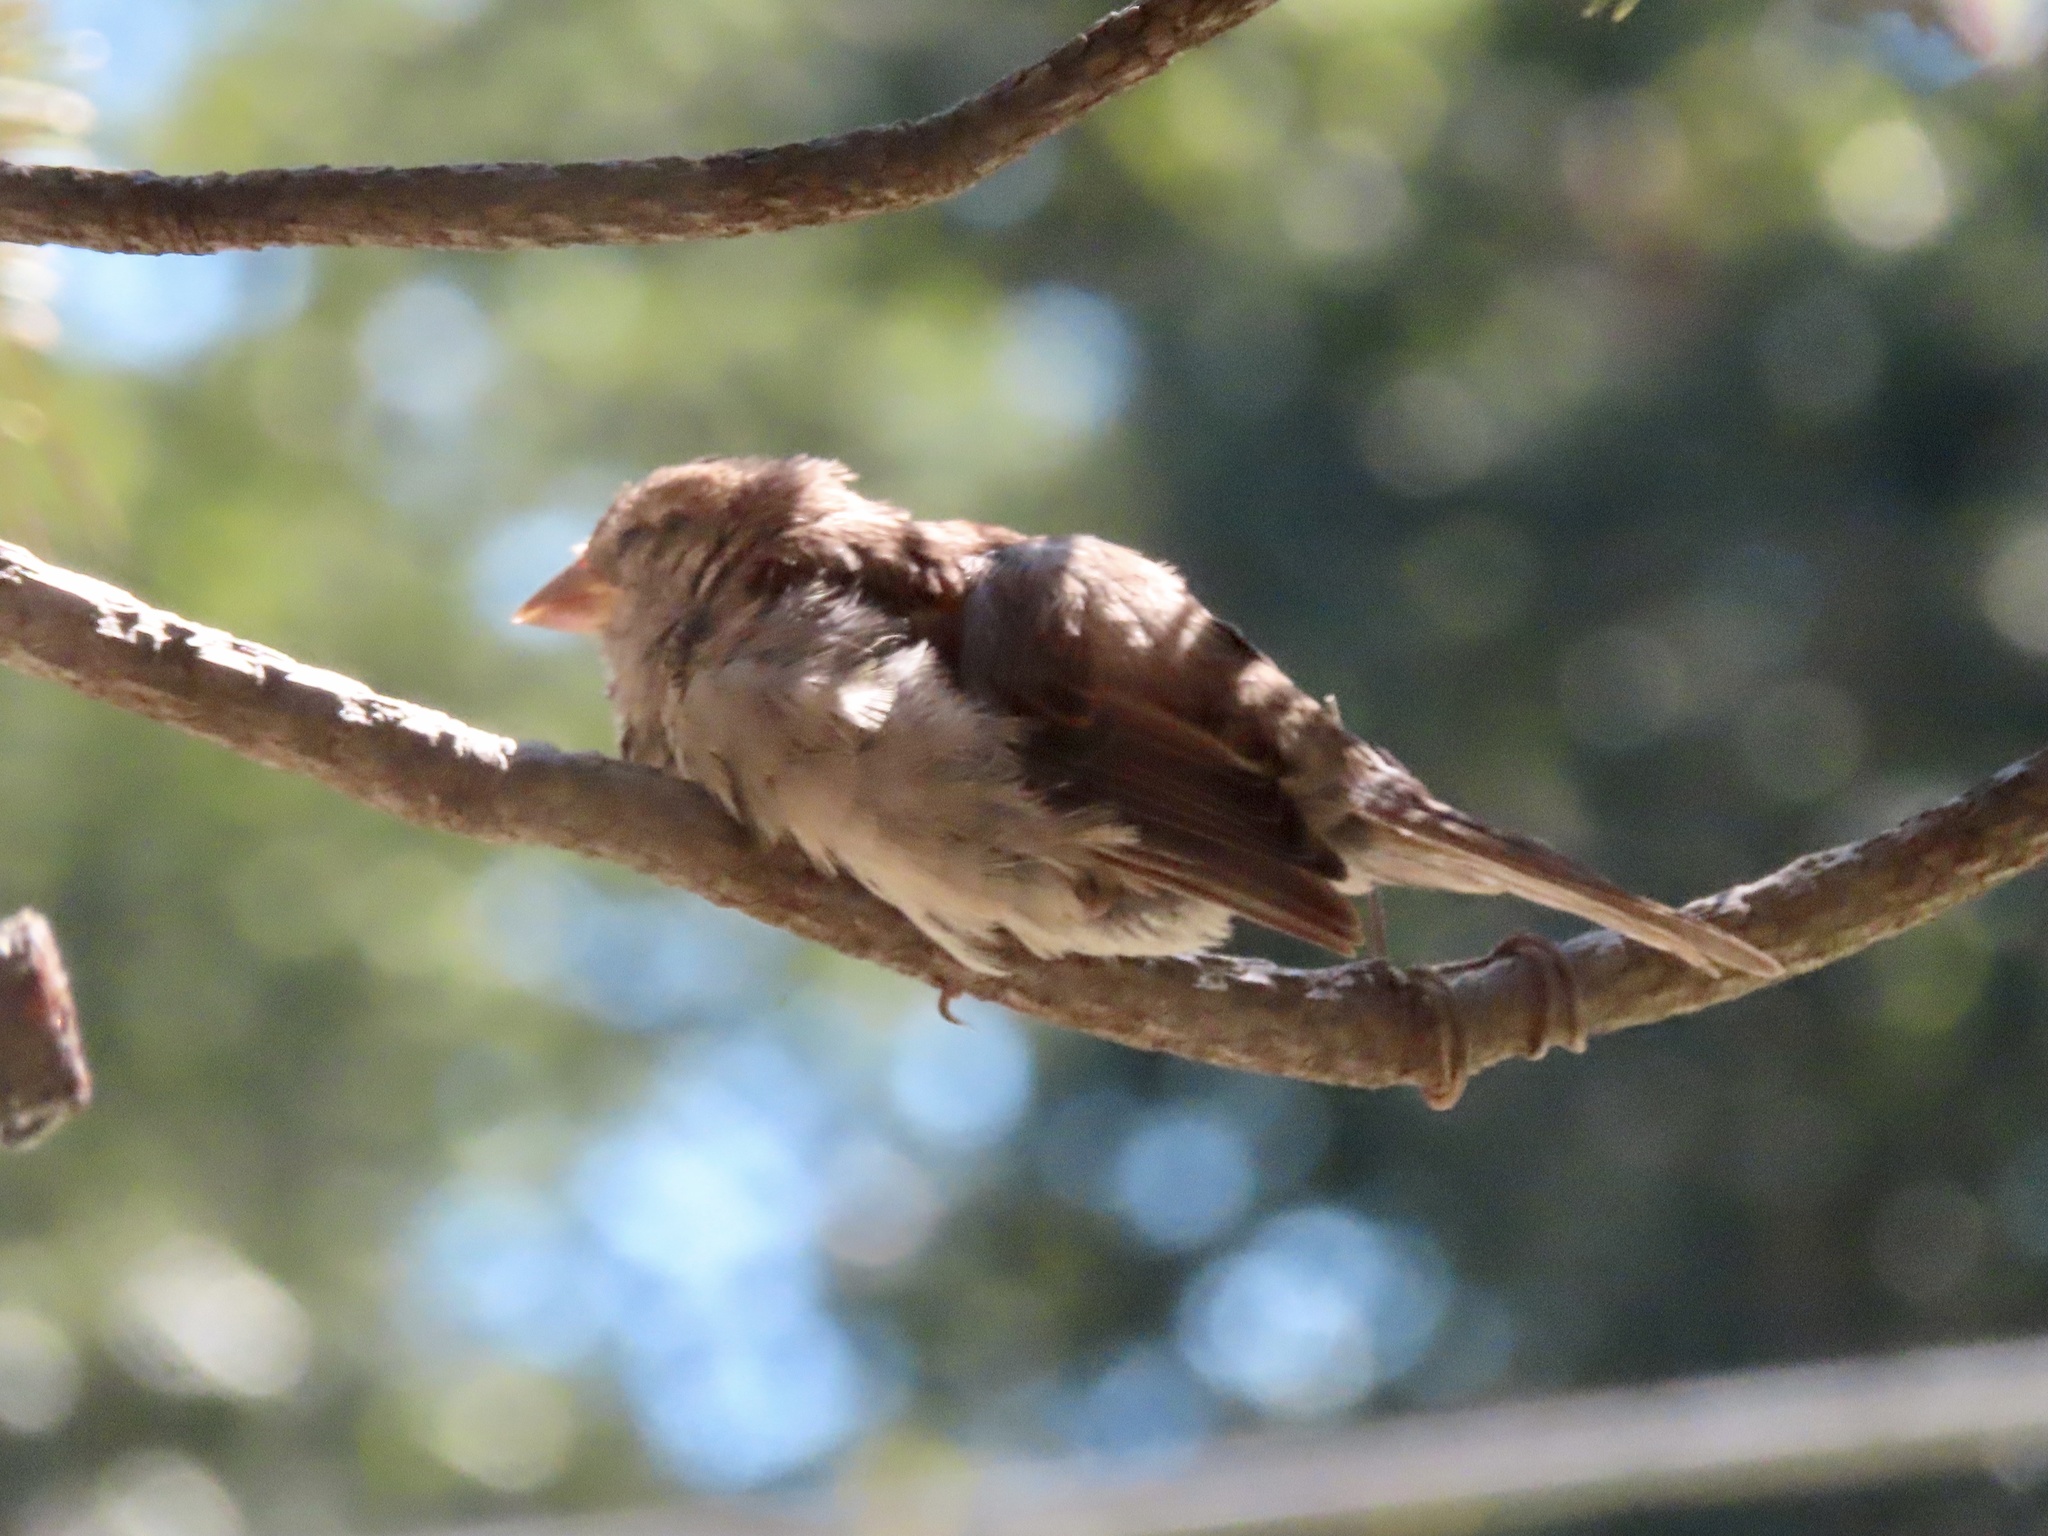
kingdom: Animalia
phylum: Chordata
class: Aves
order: Passeriformes
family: Passeridae
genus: Passer
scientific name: Passer domesticus
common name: House sparrow
